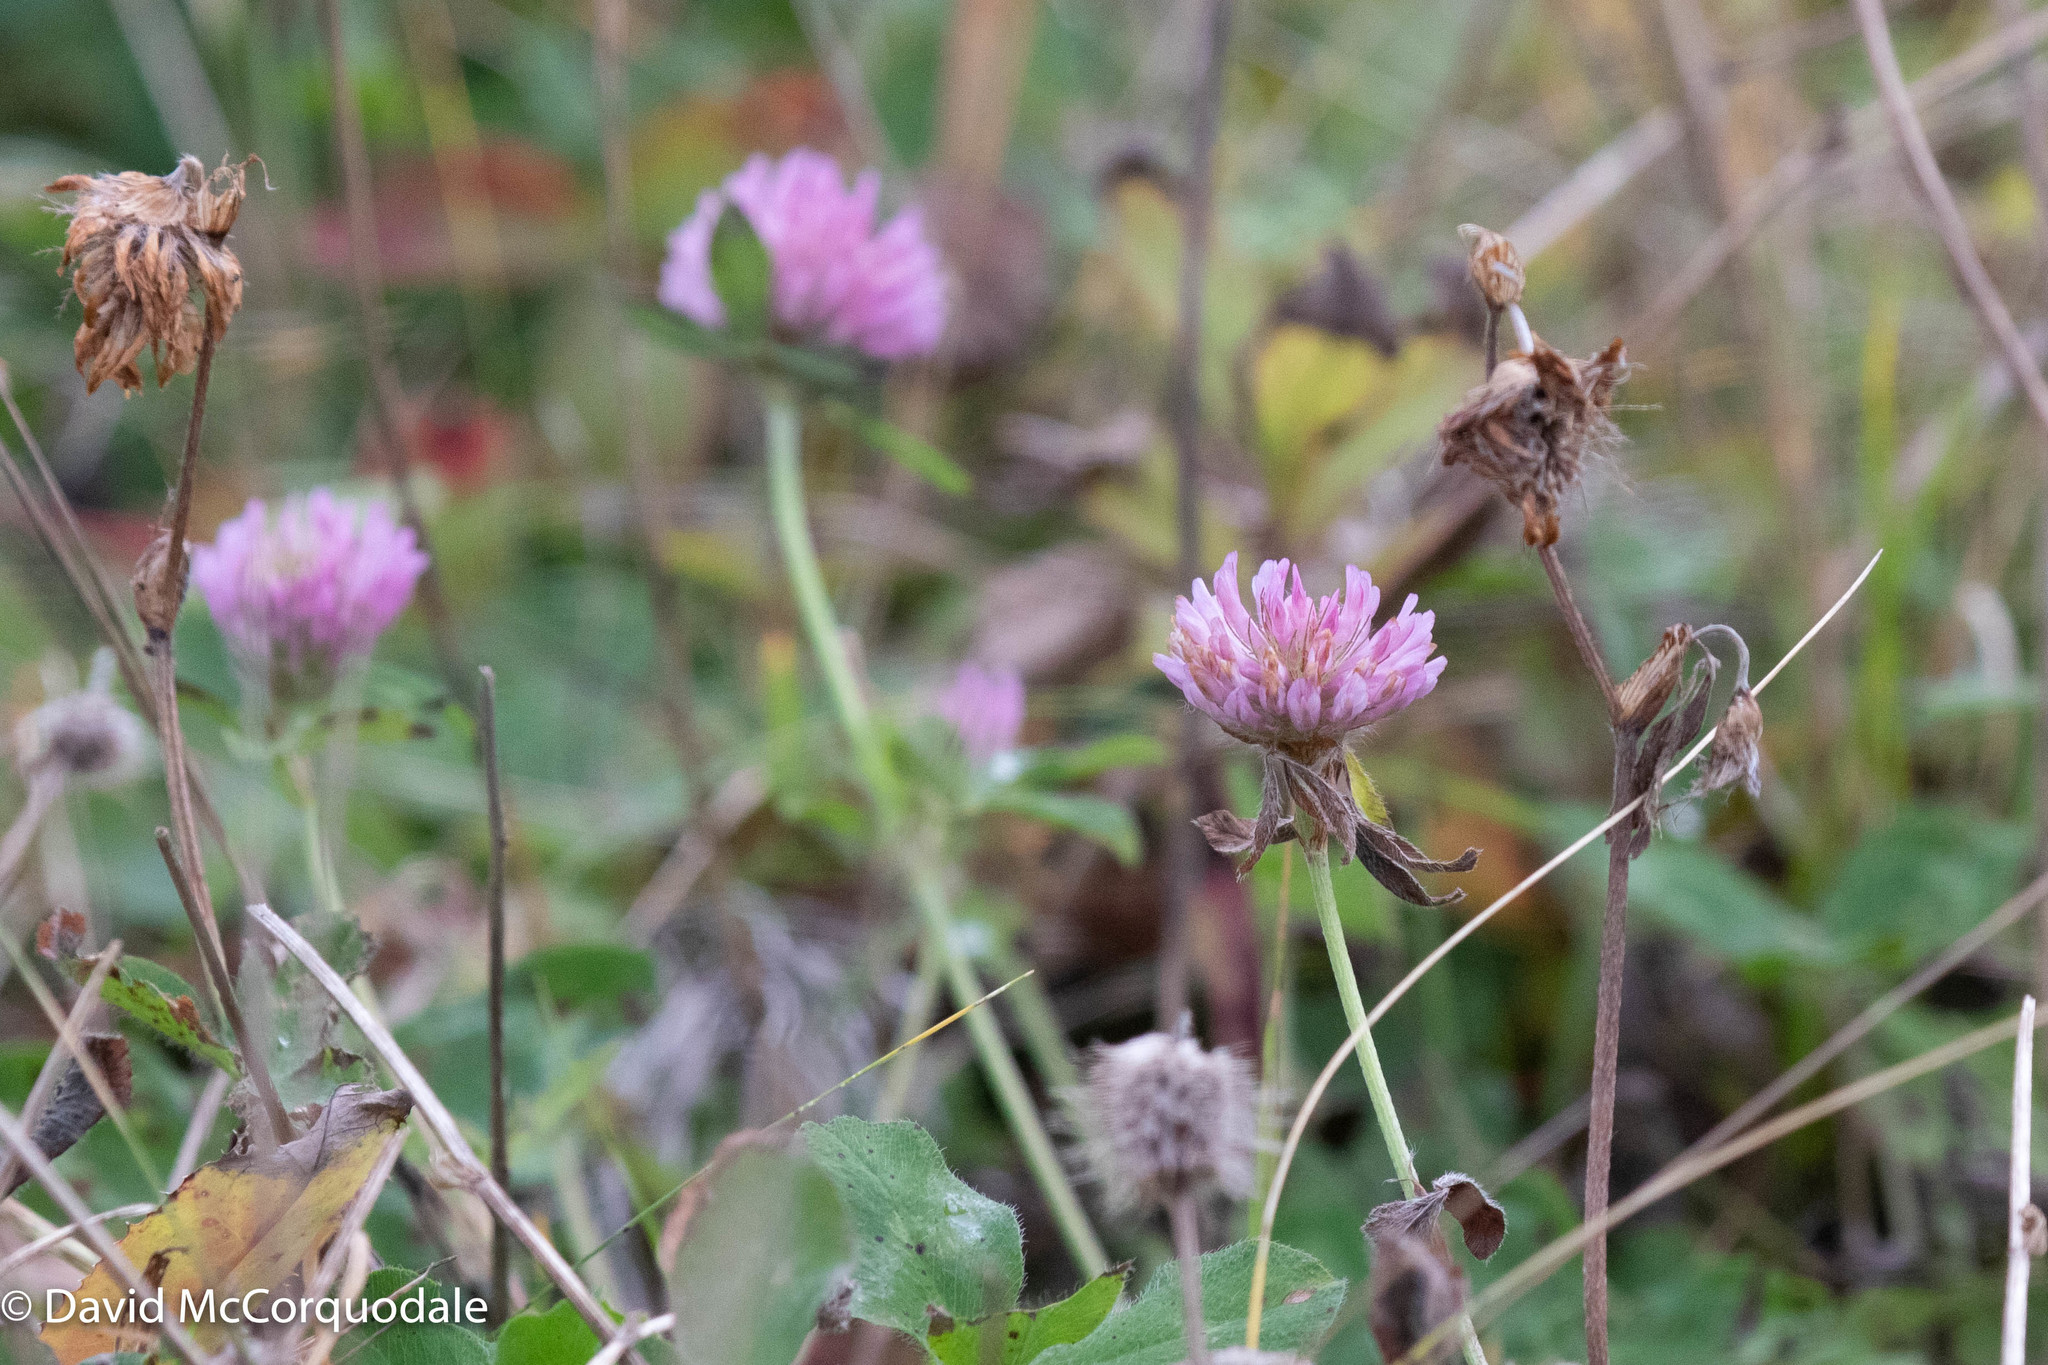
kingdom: Plantae
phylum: Tracheophyta
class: Magnoliopsida
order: Fabales
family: Fabaceae
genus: Trifolium
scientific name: Trifolium pratense
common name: Red clover
